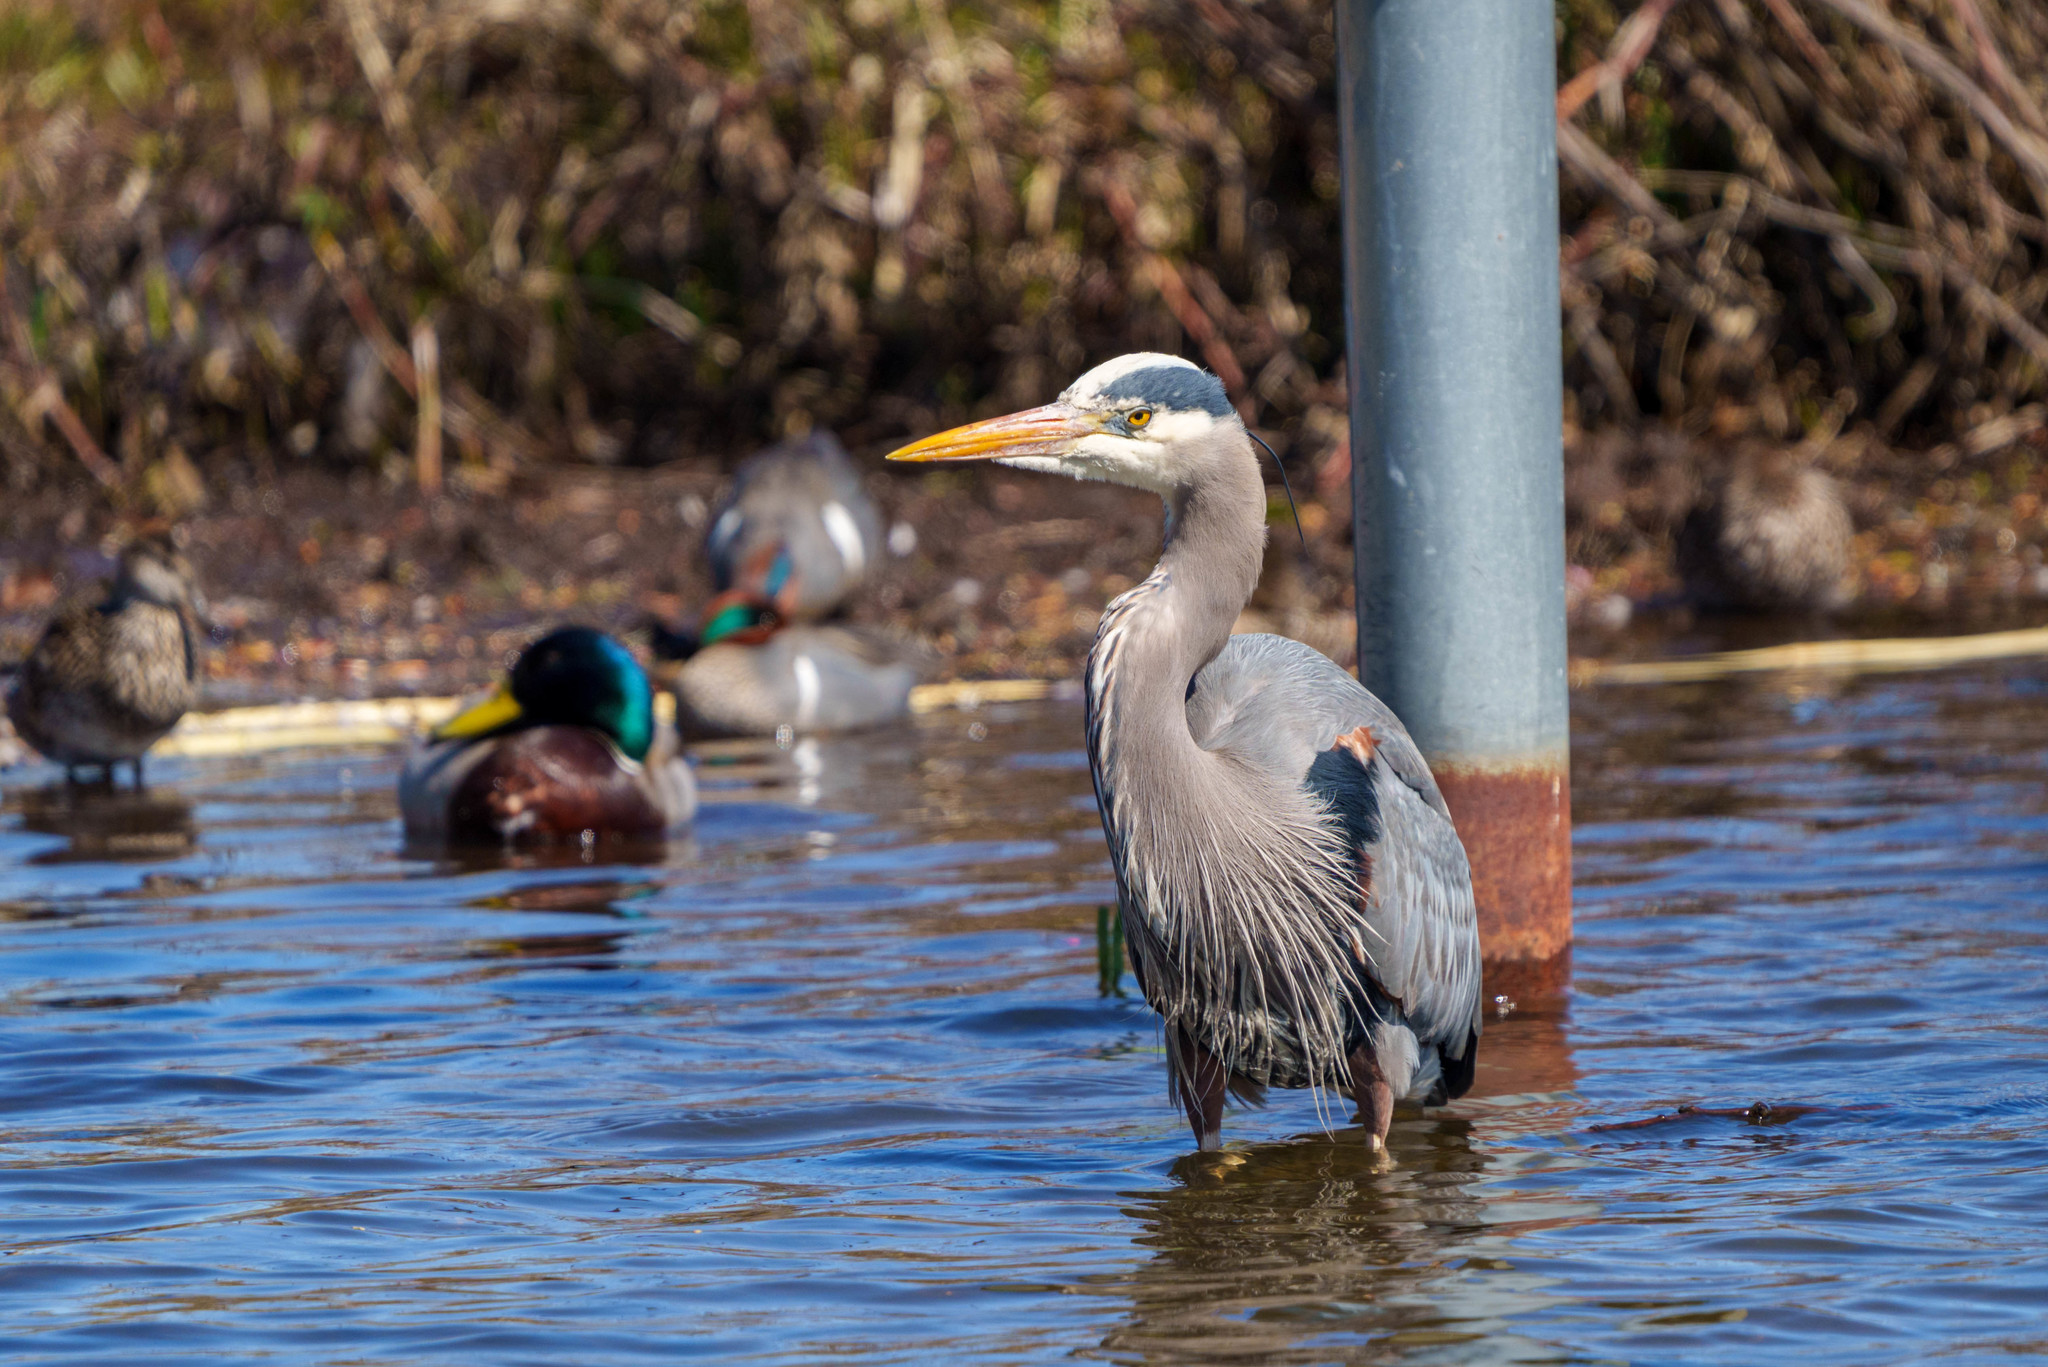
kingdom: Animalia
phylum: Chordata
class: Aves
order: Pelecaniformes
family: Ardeidae
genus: Ardea
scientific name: Ardea herodias
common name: Great blue heron
